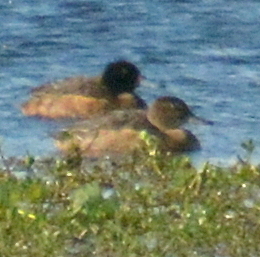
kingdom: Animalia
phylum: Chordata
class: Aves
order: Anseriformes
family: Anatidae
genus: Heteronetta
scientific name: Heteronetta atricapilla
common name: Black-headed duck
